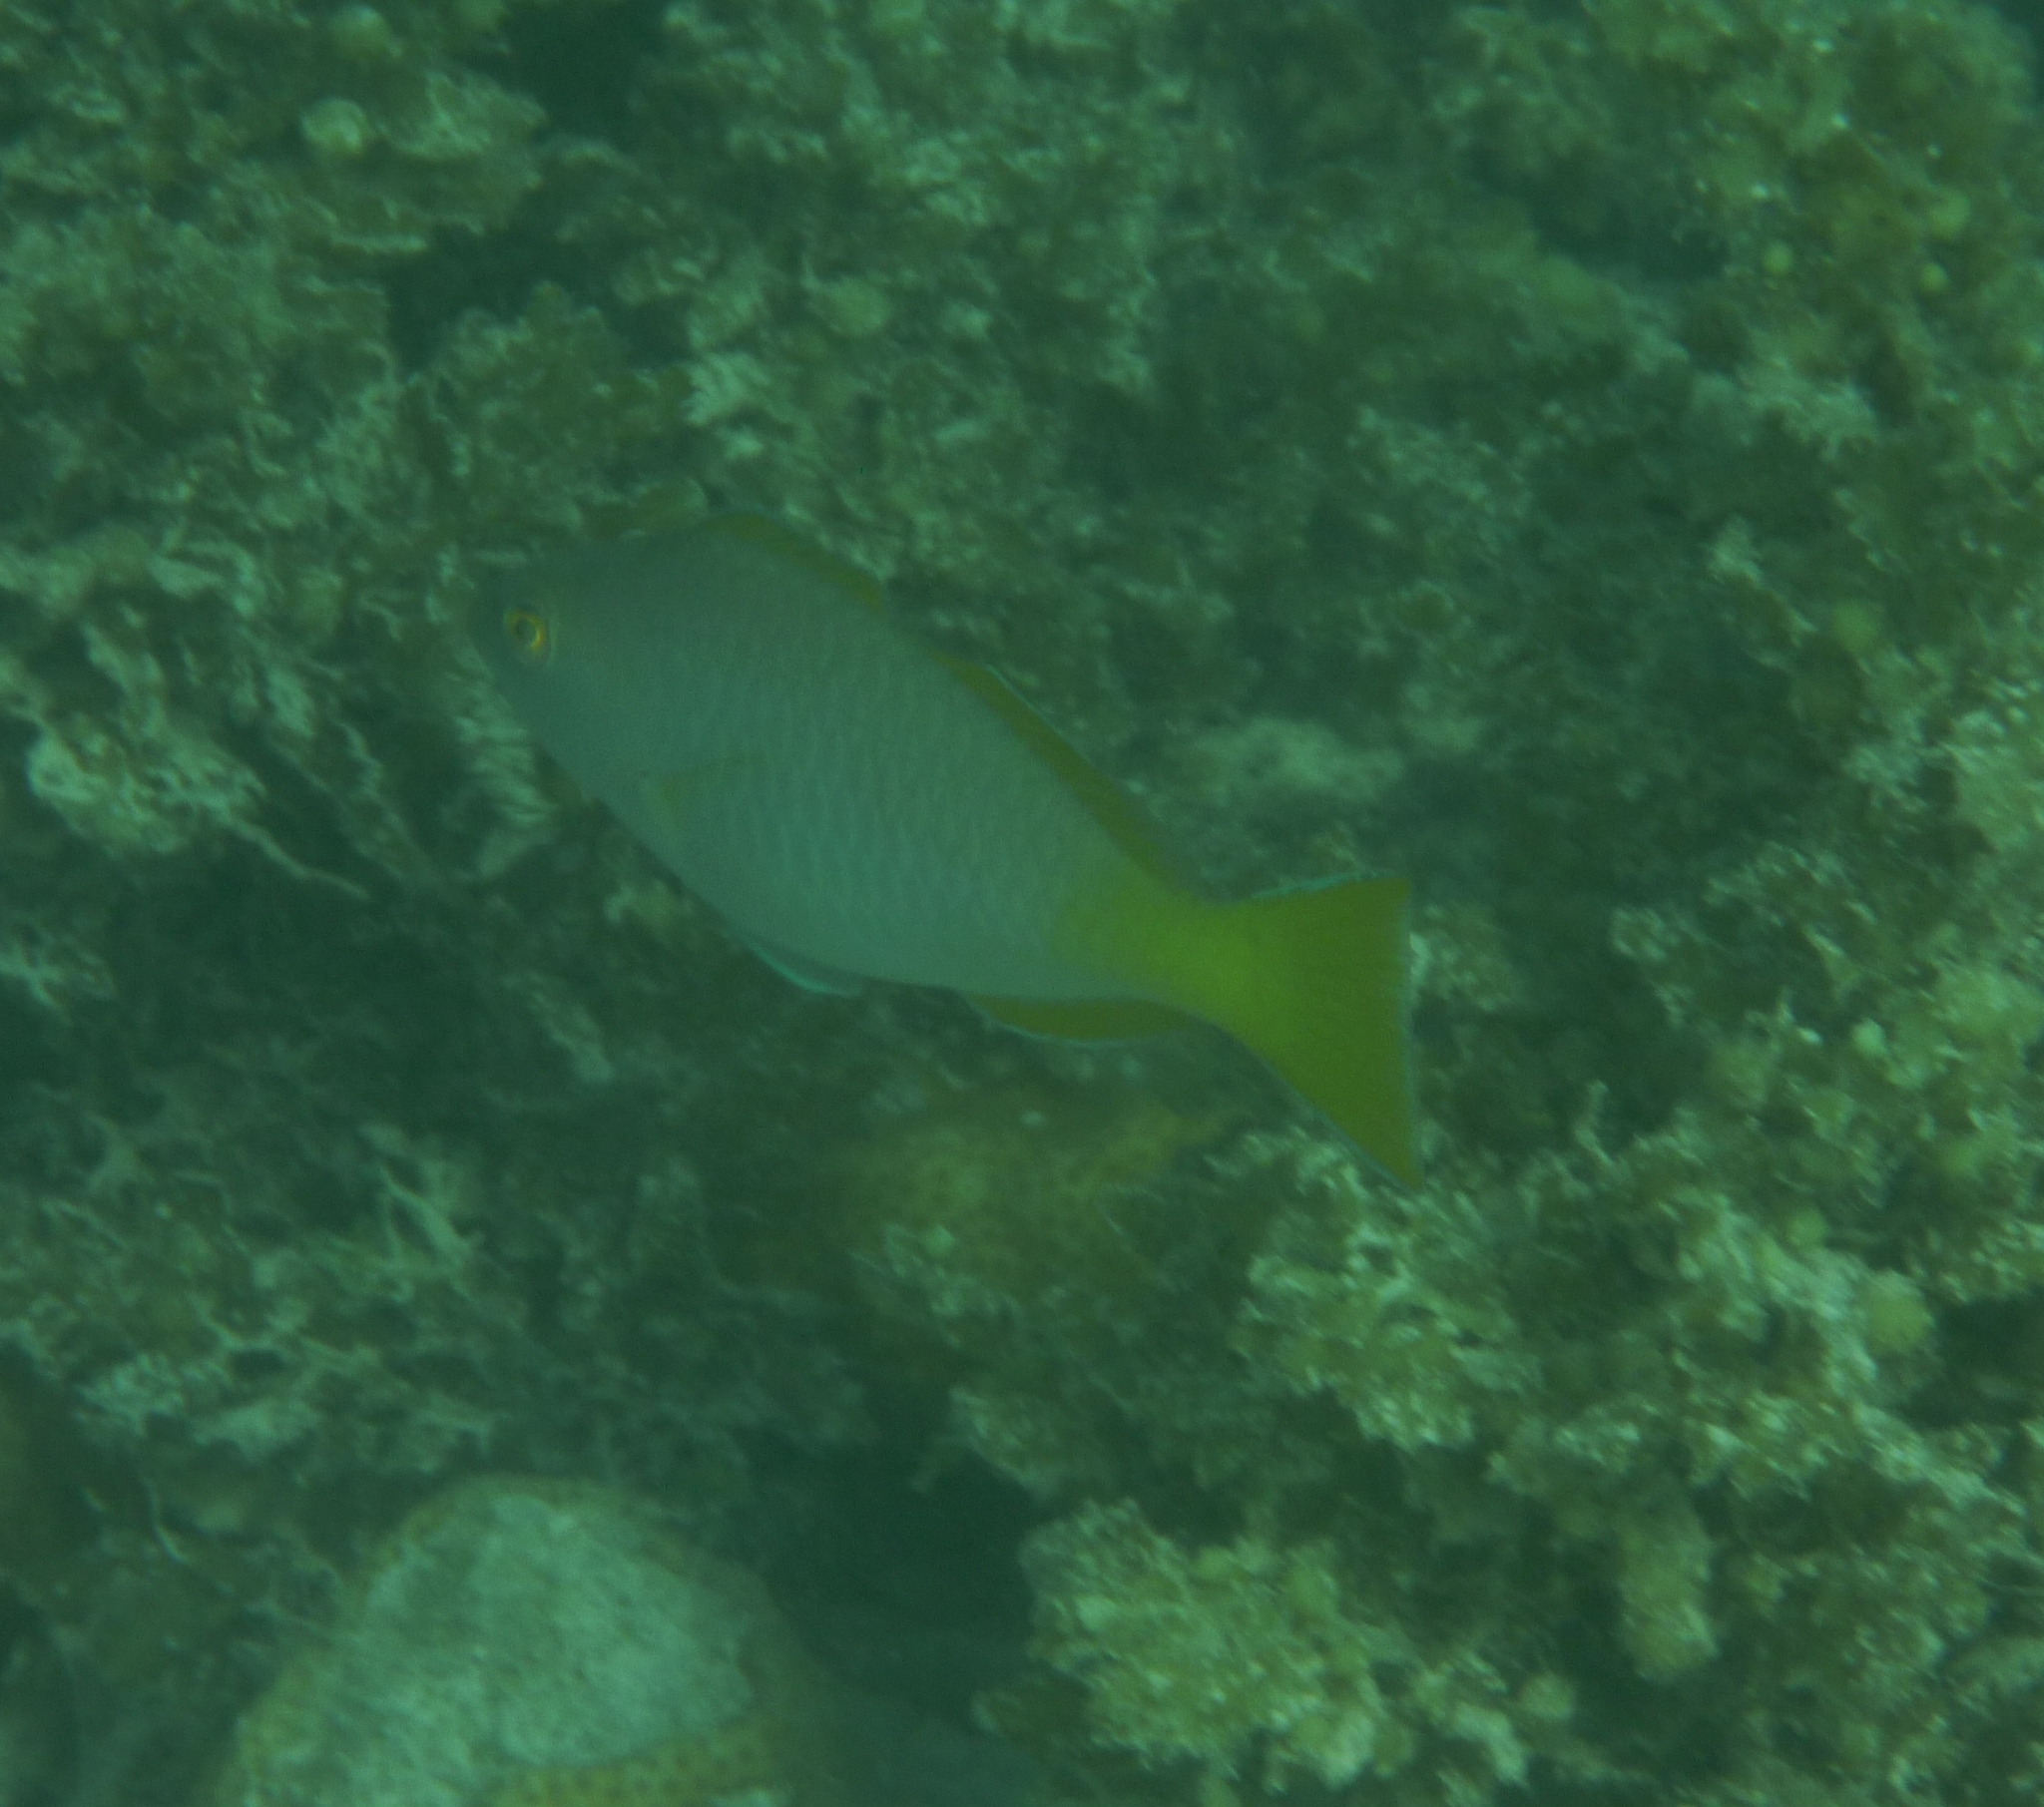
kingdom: Animalia
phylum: Chordata
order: Perciformes
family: Scaridae
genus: Hipposcarus
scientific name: Hipposcarus longiceps
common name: Pacific longnose parrotfish
